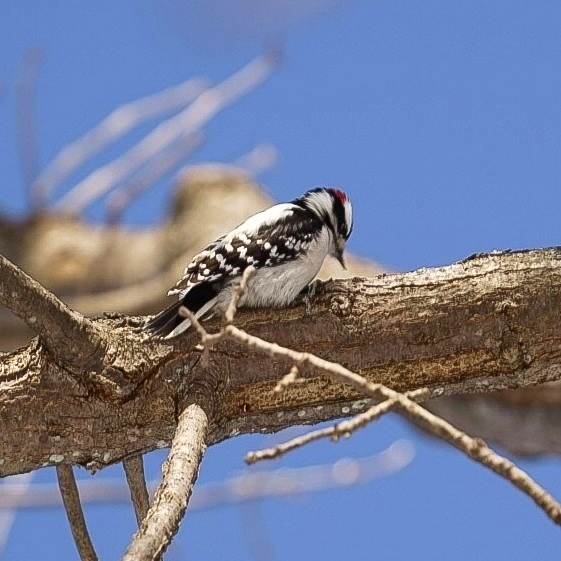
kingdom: Animalia
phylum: Chordata
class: Aves
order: Piciformes
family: Picidae
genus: Dryobates
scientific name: Dryobates pubescens
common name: Downy woodpecker
